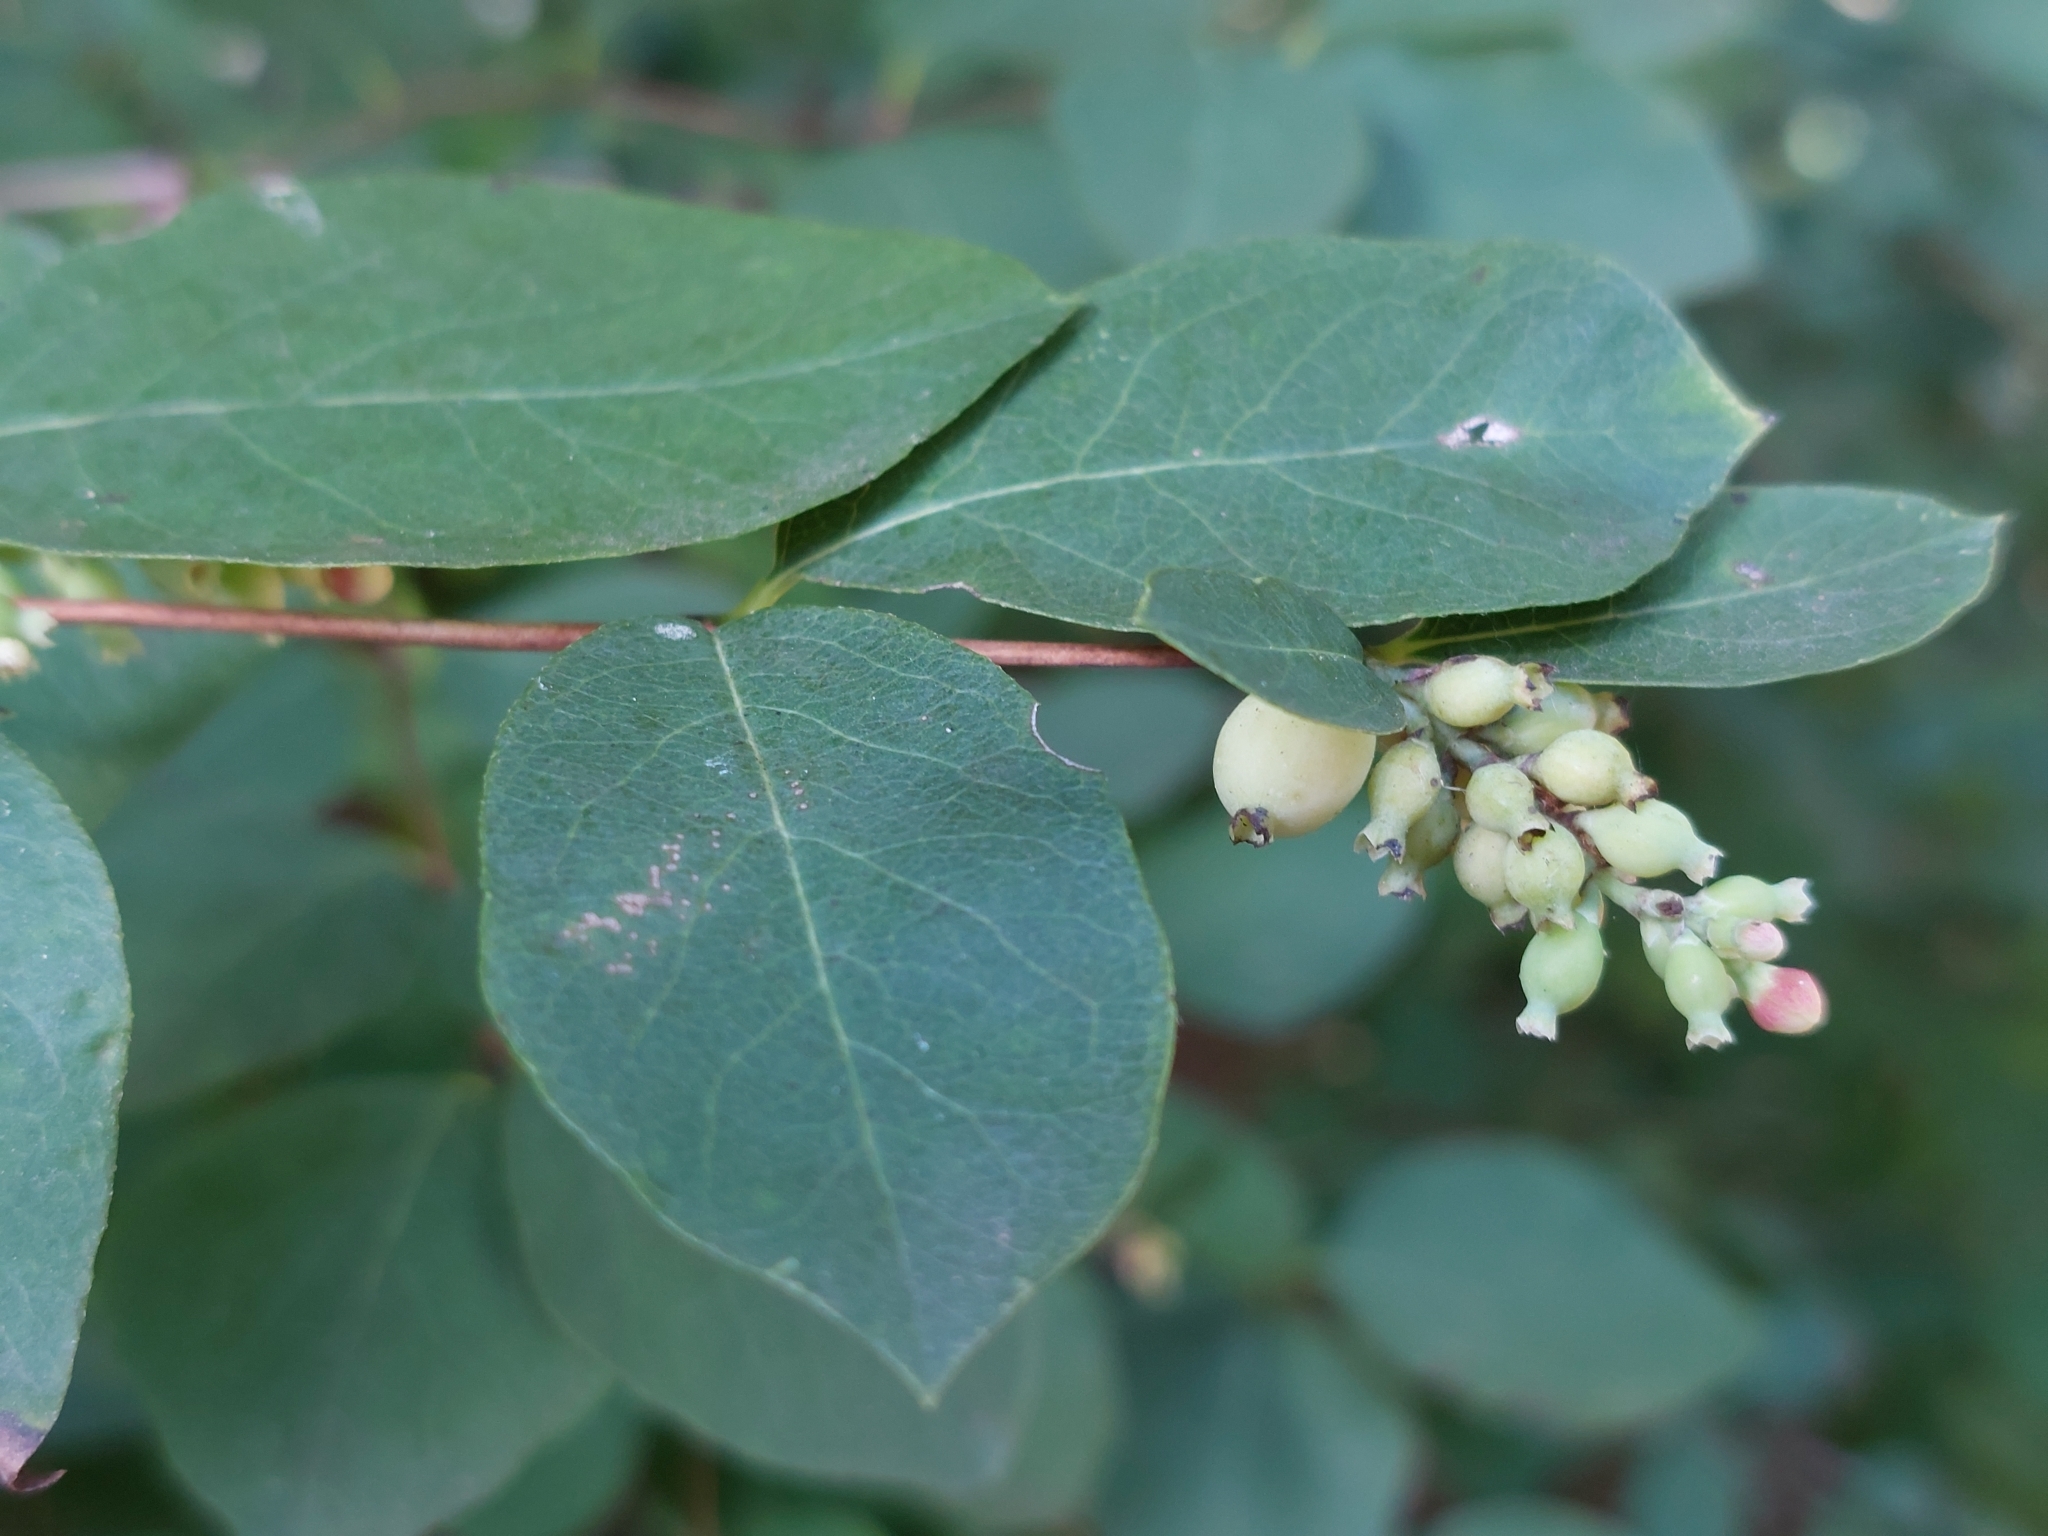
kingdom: Plantae
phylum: Tracheophyta
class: Magnoliopsida
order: Dipsacales
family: Caprifoliaceae
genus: Symphoricarpos
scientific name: Symphoricarpos albus
